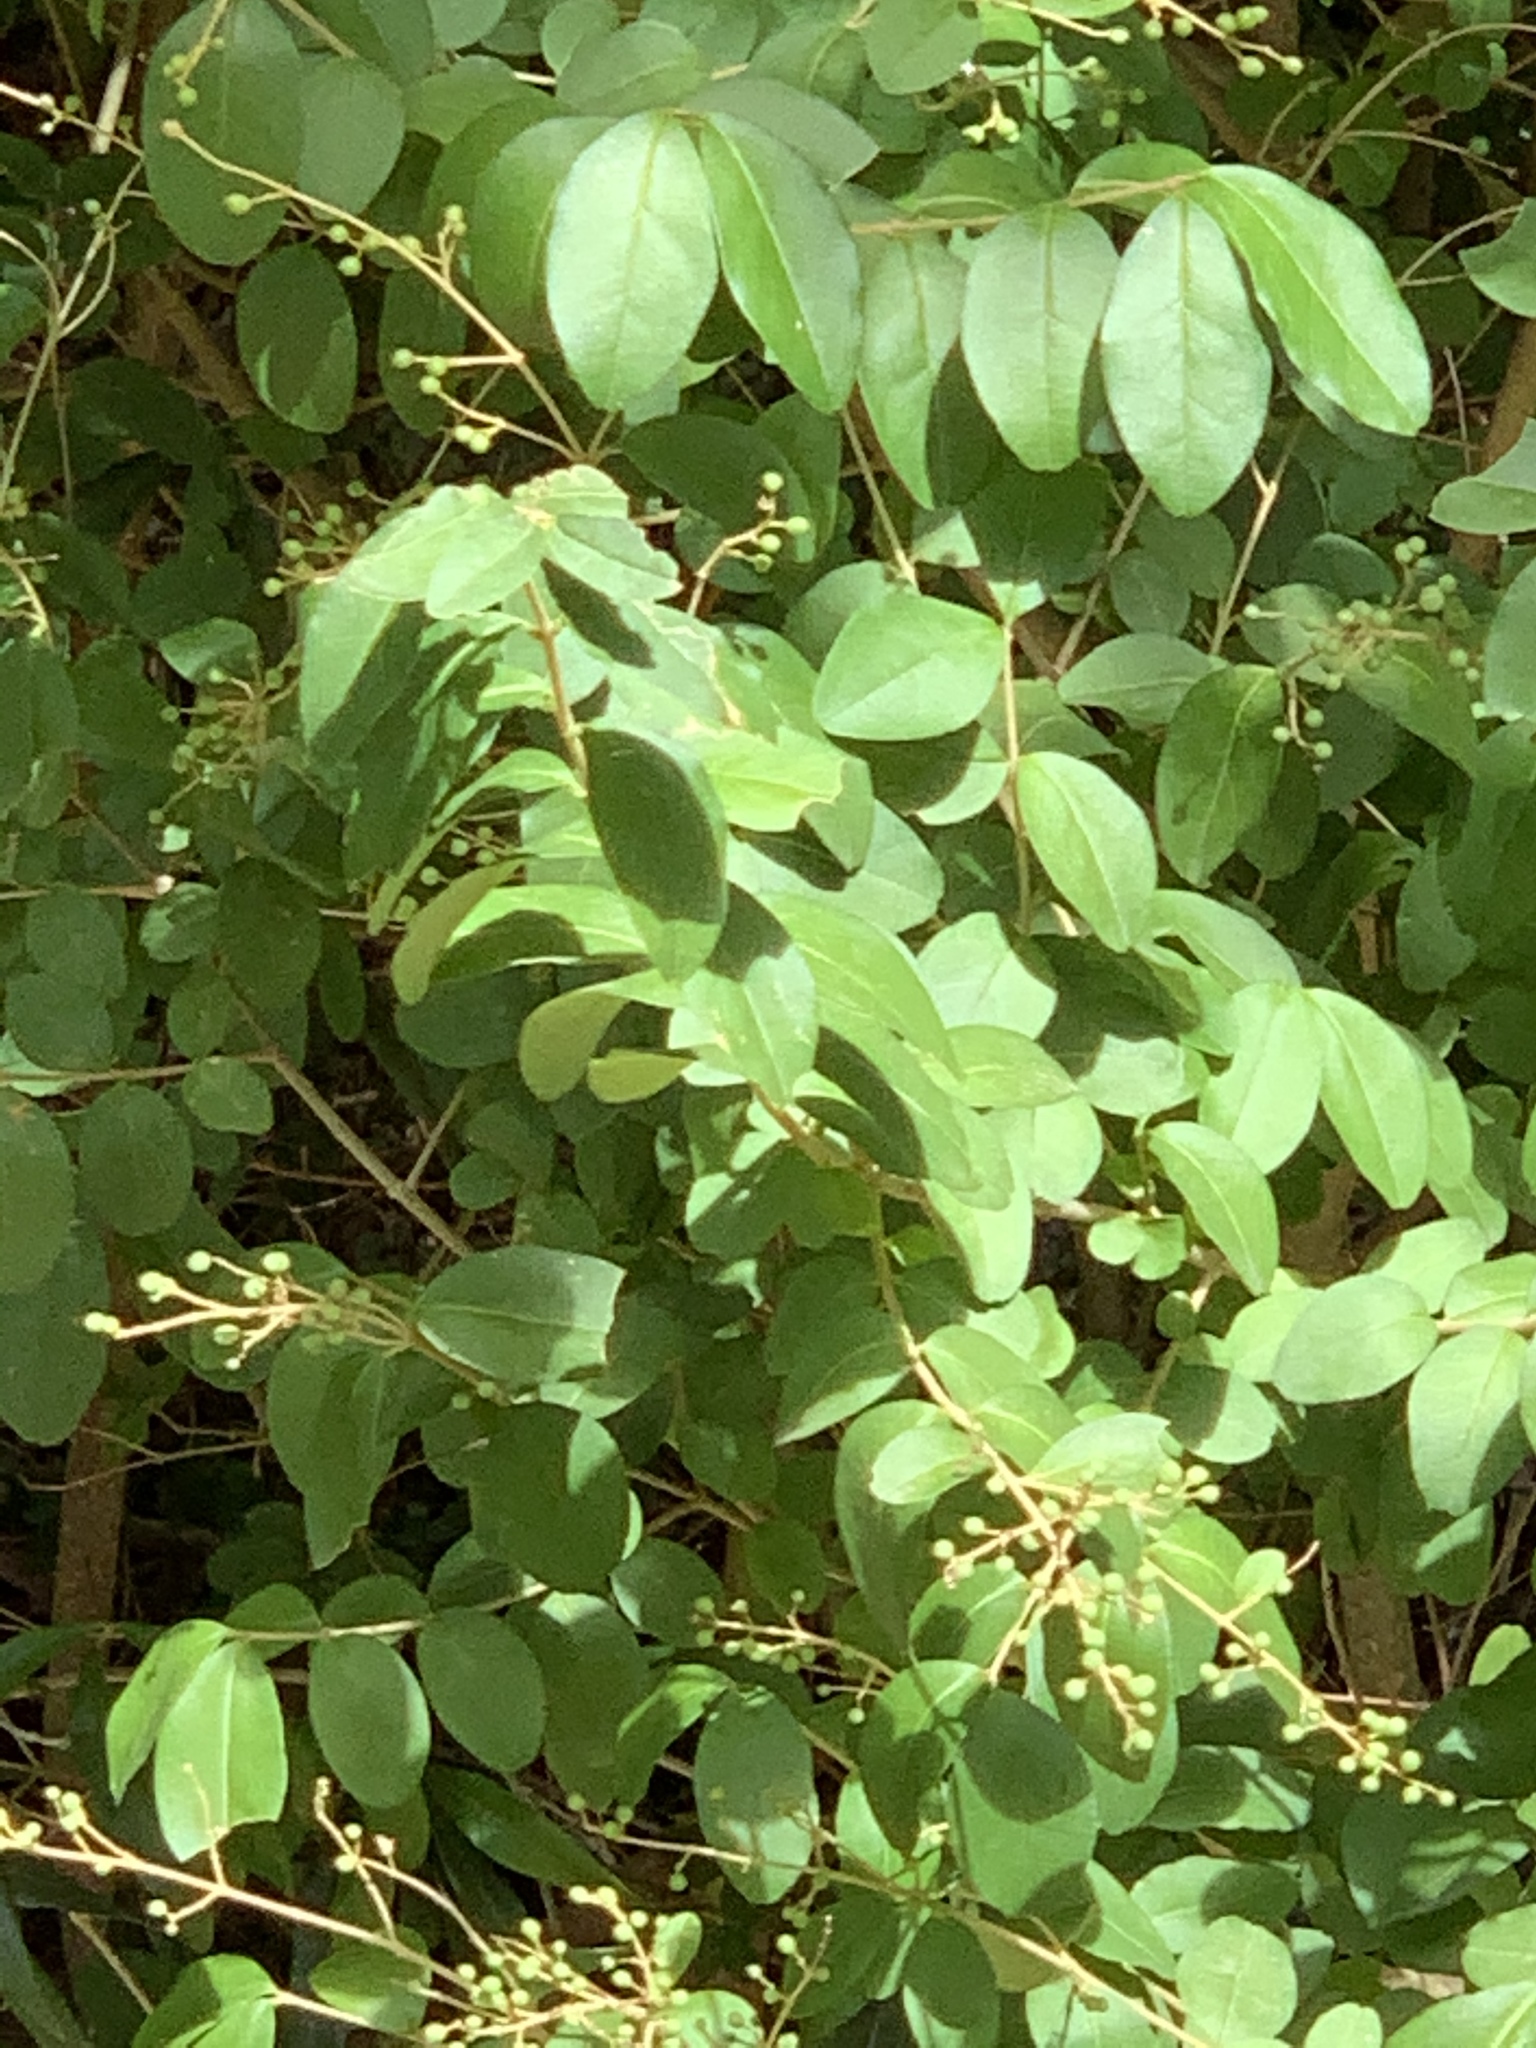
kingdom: Plantae
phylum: Tracheophyta
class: Magnoliopsida
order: Lamiales
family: Oleaceae
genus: Ligustrum
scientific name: Ligustrum sinense
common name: Chinese privet
